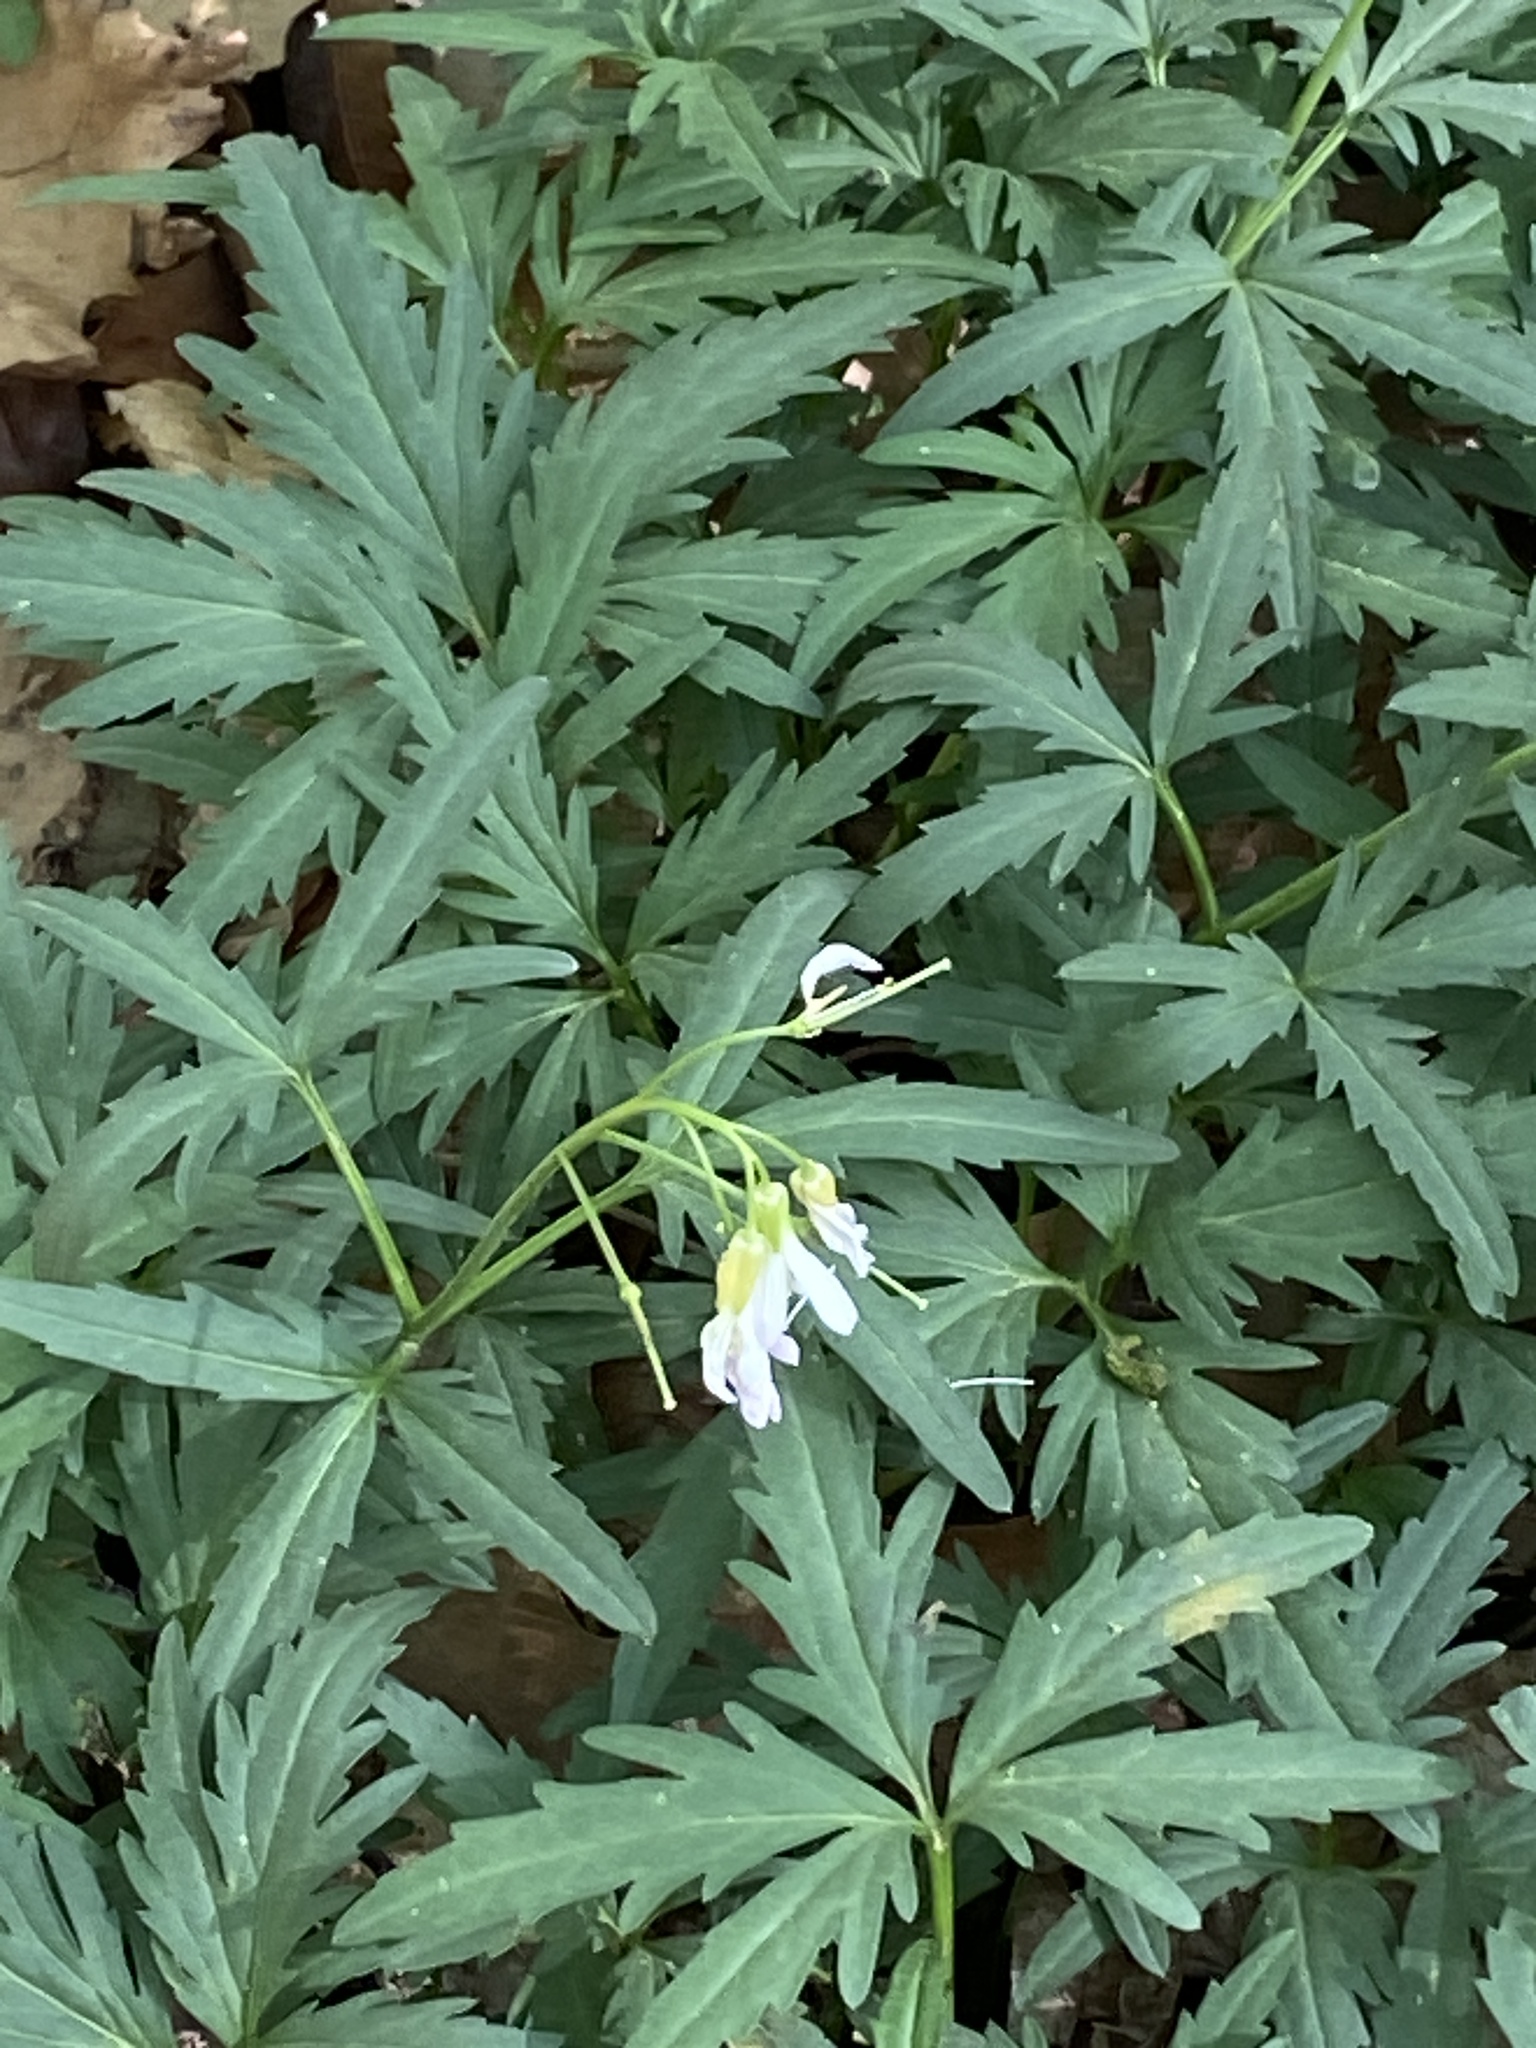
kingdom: Plantae
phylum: Tracheophyta
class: Magnoliopsida
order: Brassicales
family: Brassicaceae
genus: Cardamine
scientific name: Cardamine concatenata
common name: Cut-leaf toothcup
